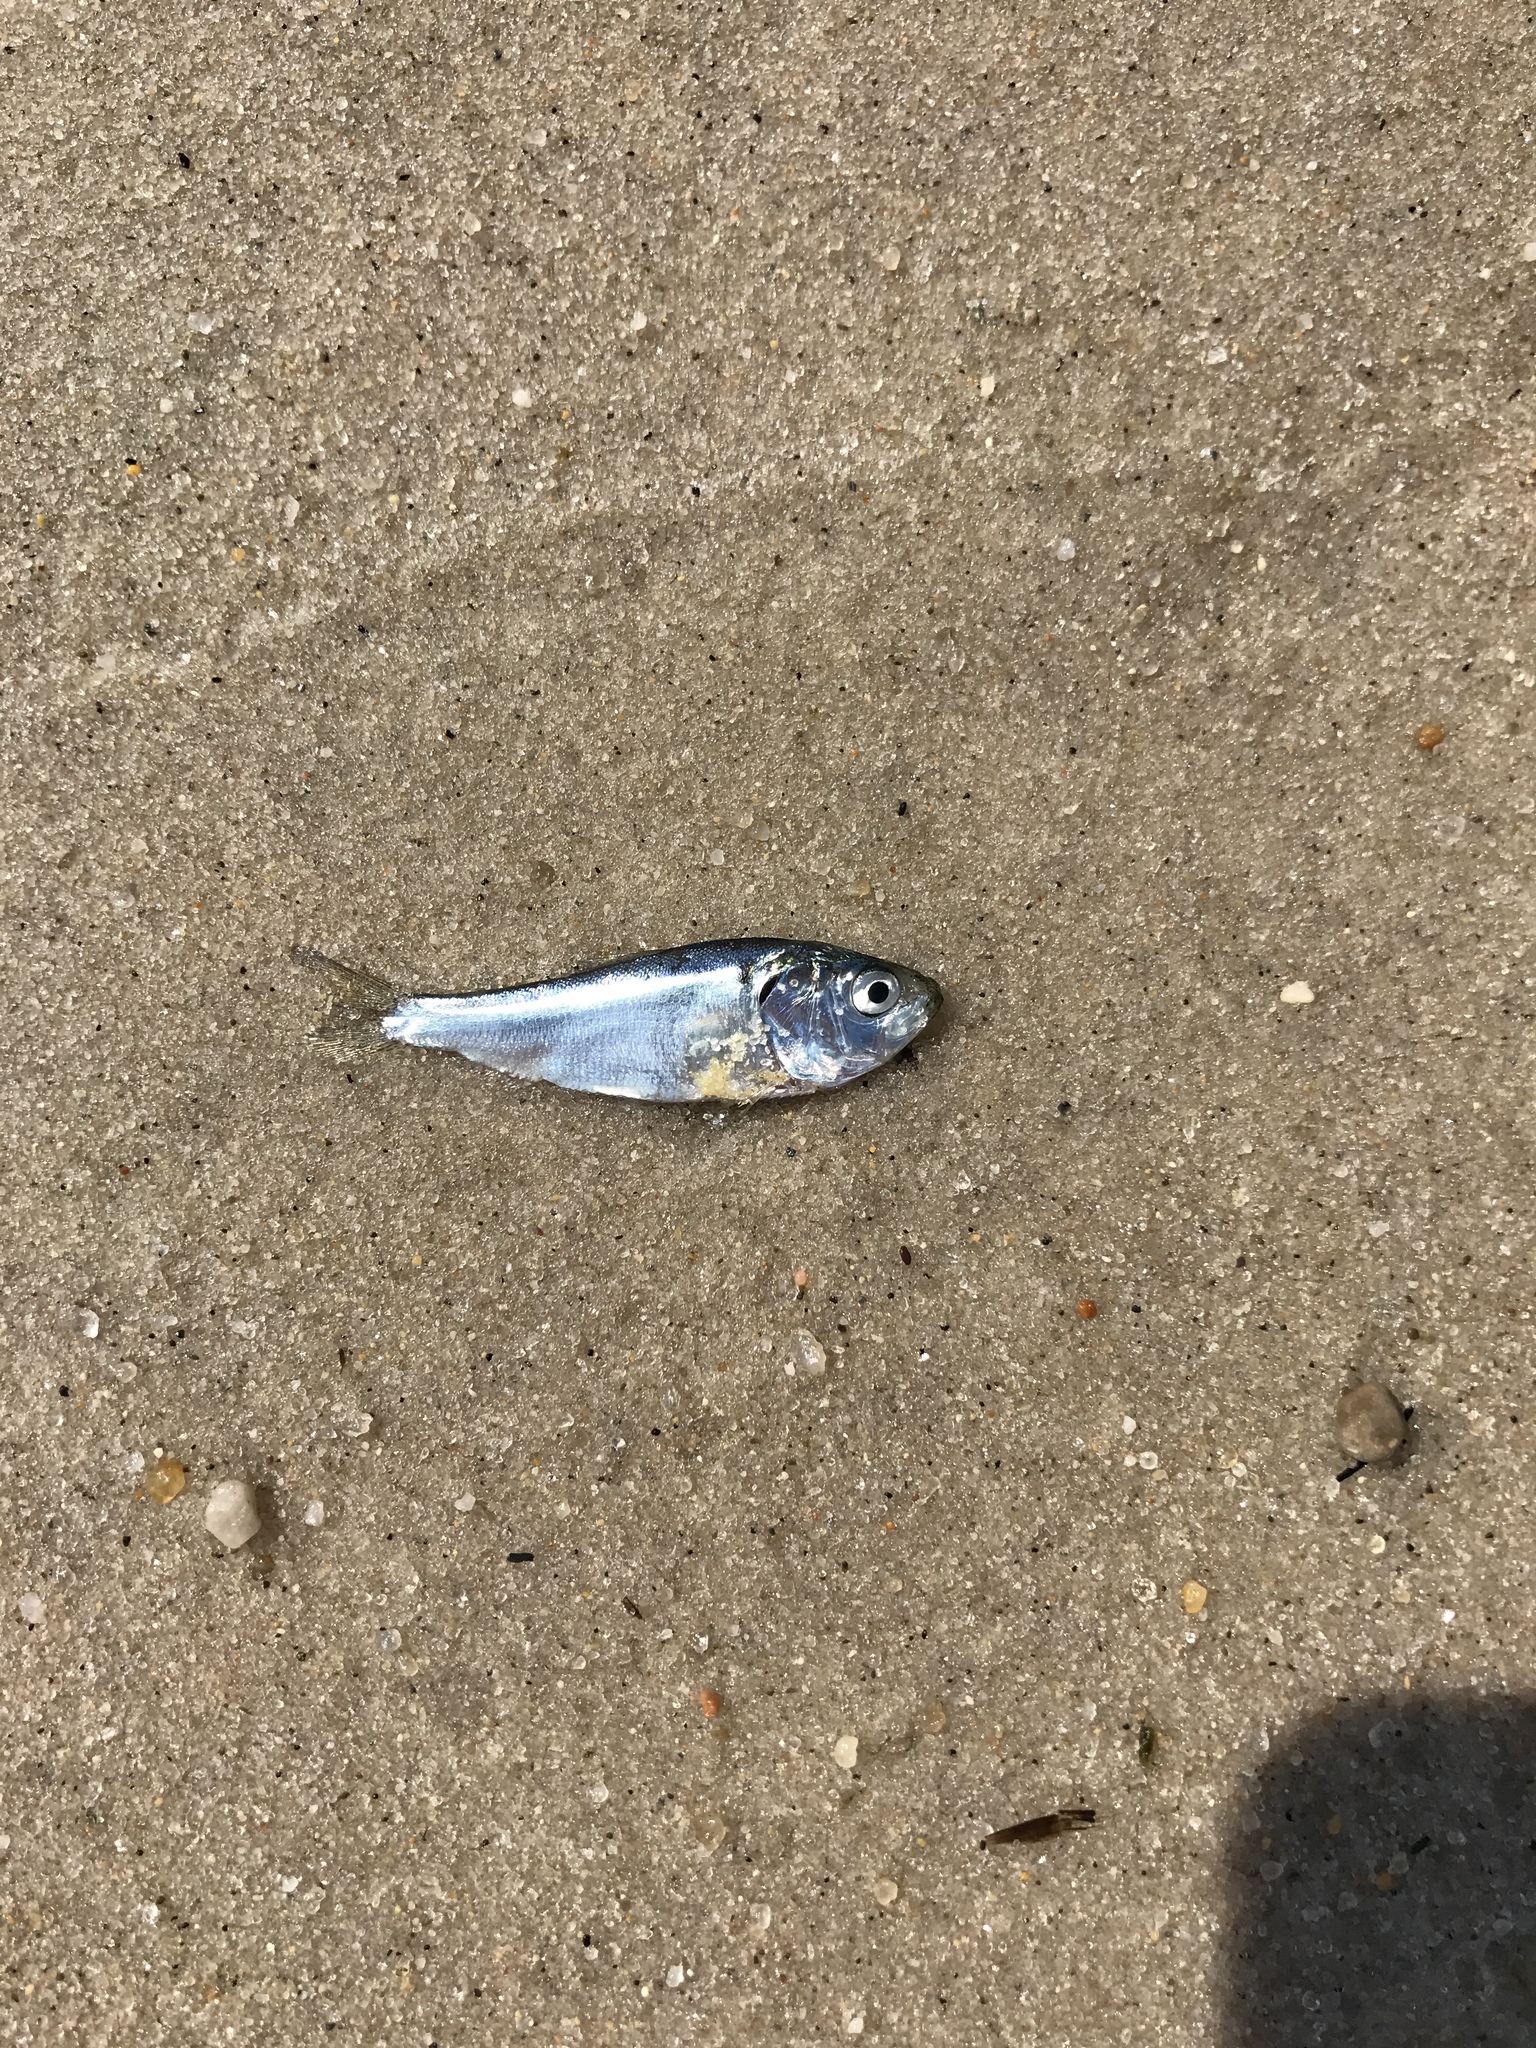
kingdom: Animalia
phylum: Chordata
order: Clupeiformes
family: Clupeidae
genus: Brevoortia
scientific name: Brevoortia tyrannus
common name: Atlantic menhaden
